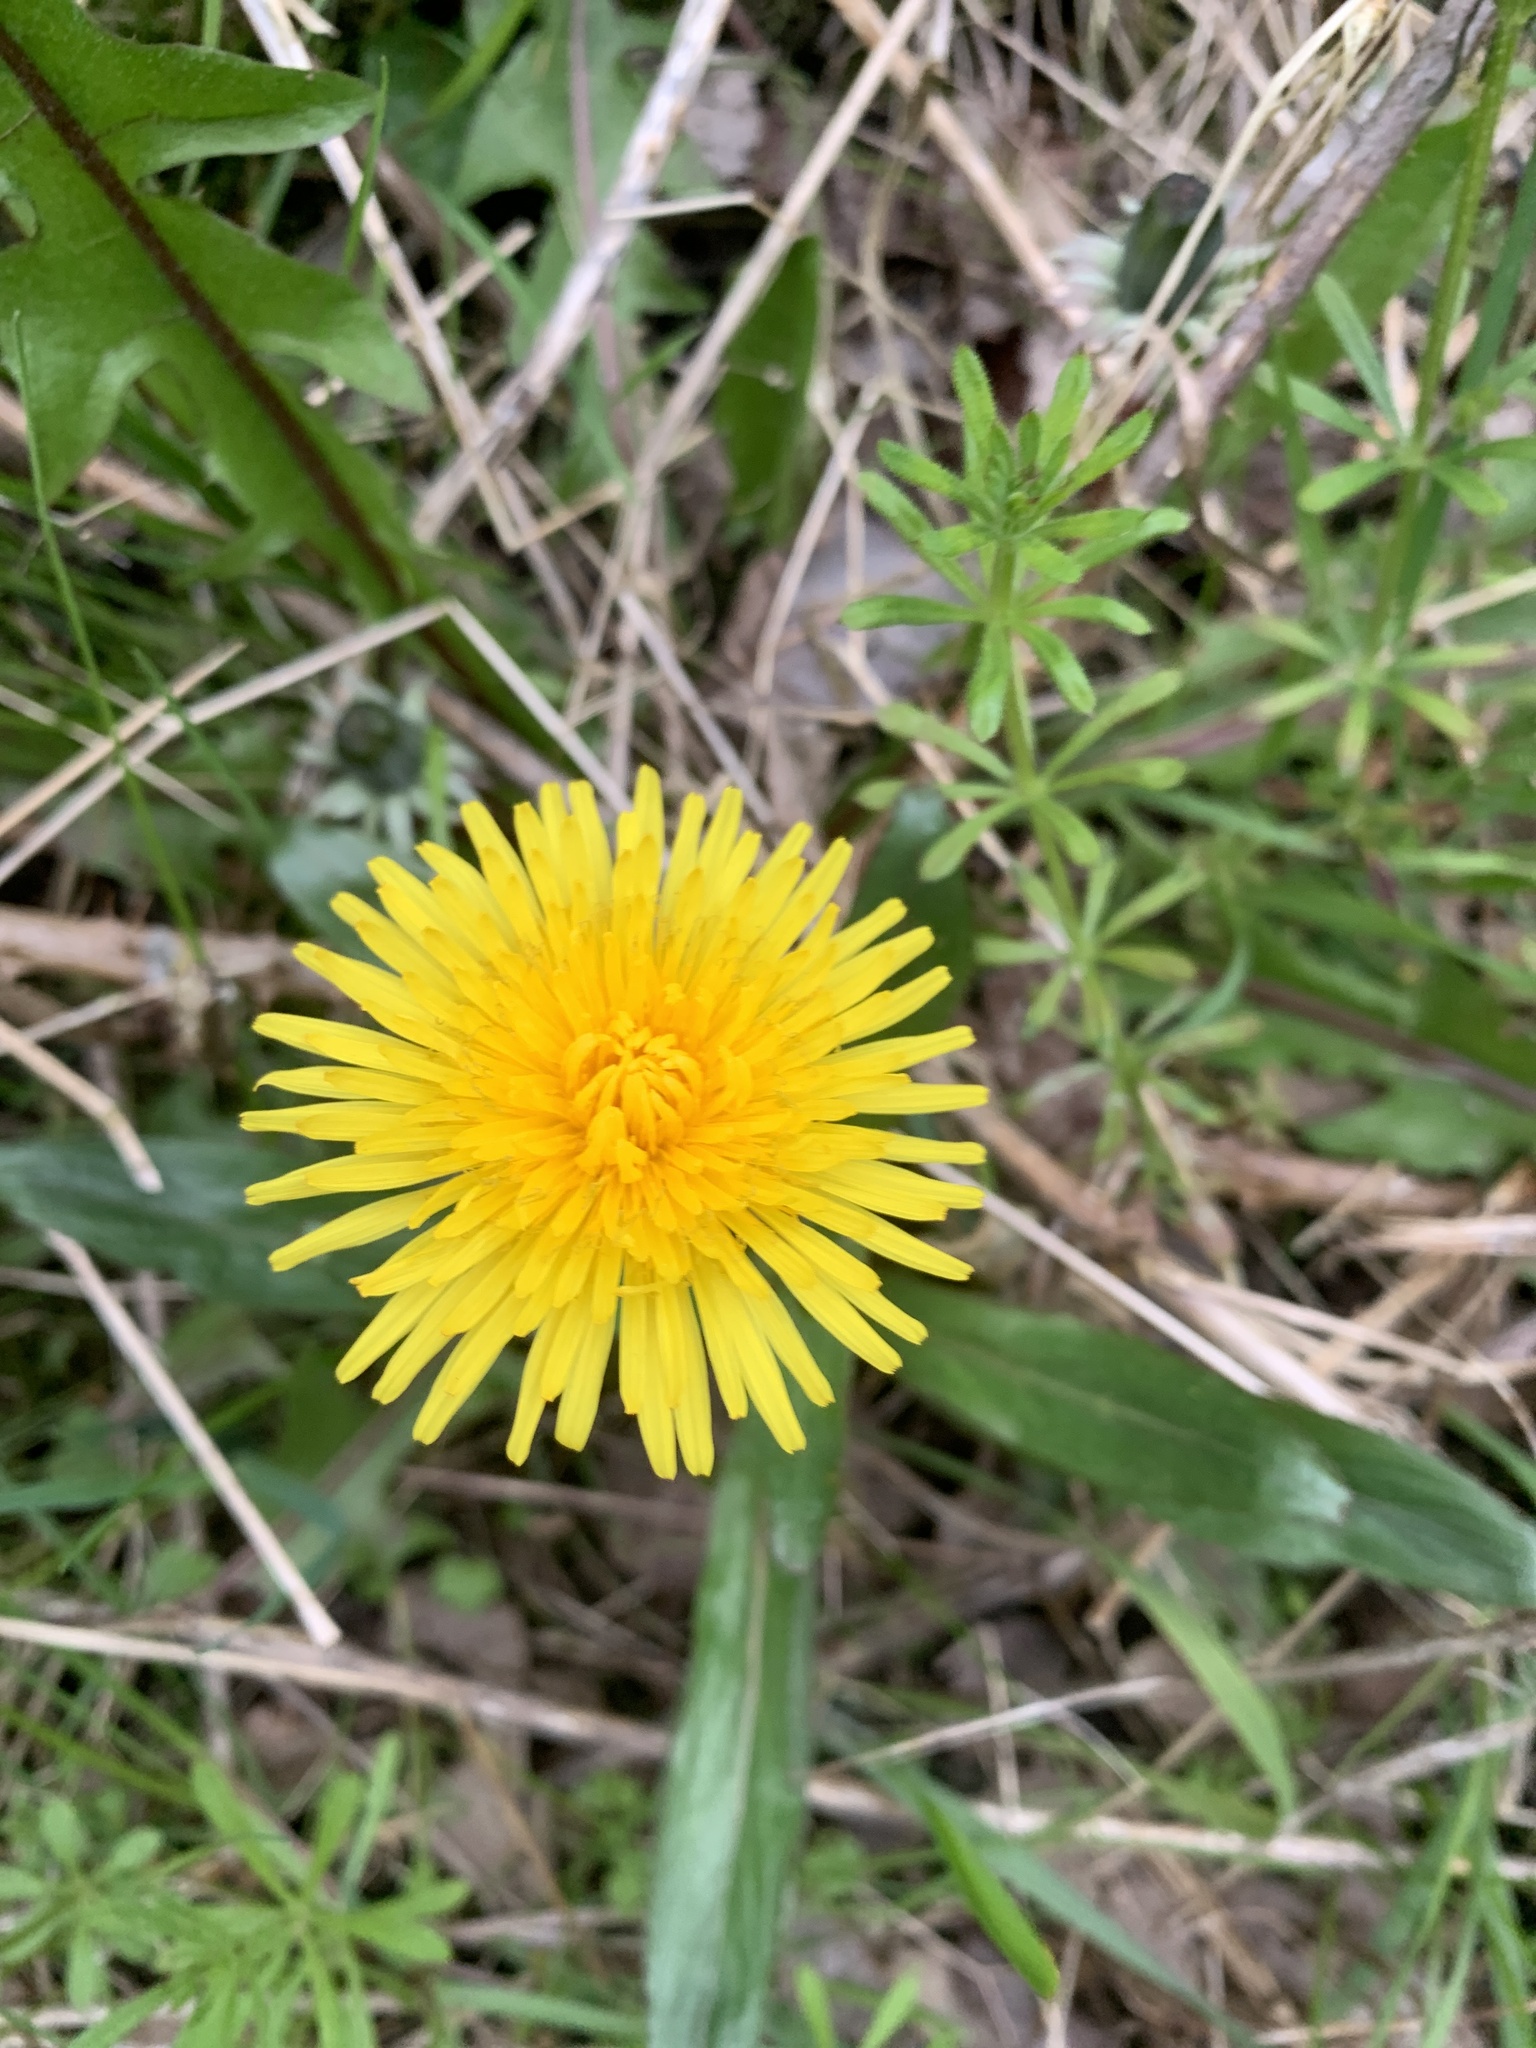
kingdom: Plantae
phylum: Tracheophyta
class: Magnoliopsida
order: Asterales
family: Asteraceae
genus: Taraxacum
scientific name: Taraxacum officinale
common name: Common dandelion
